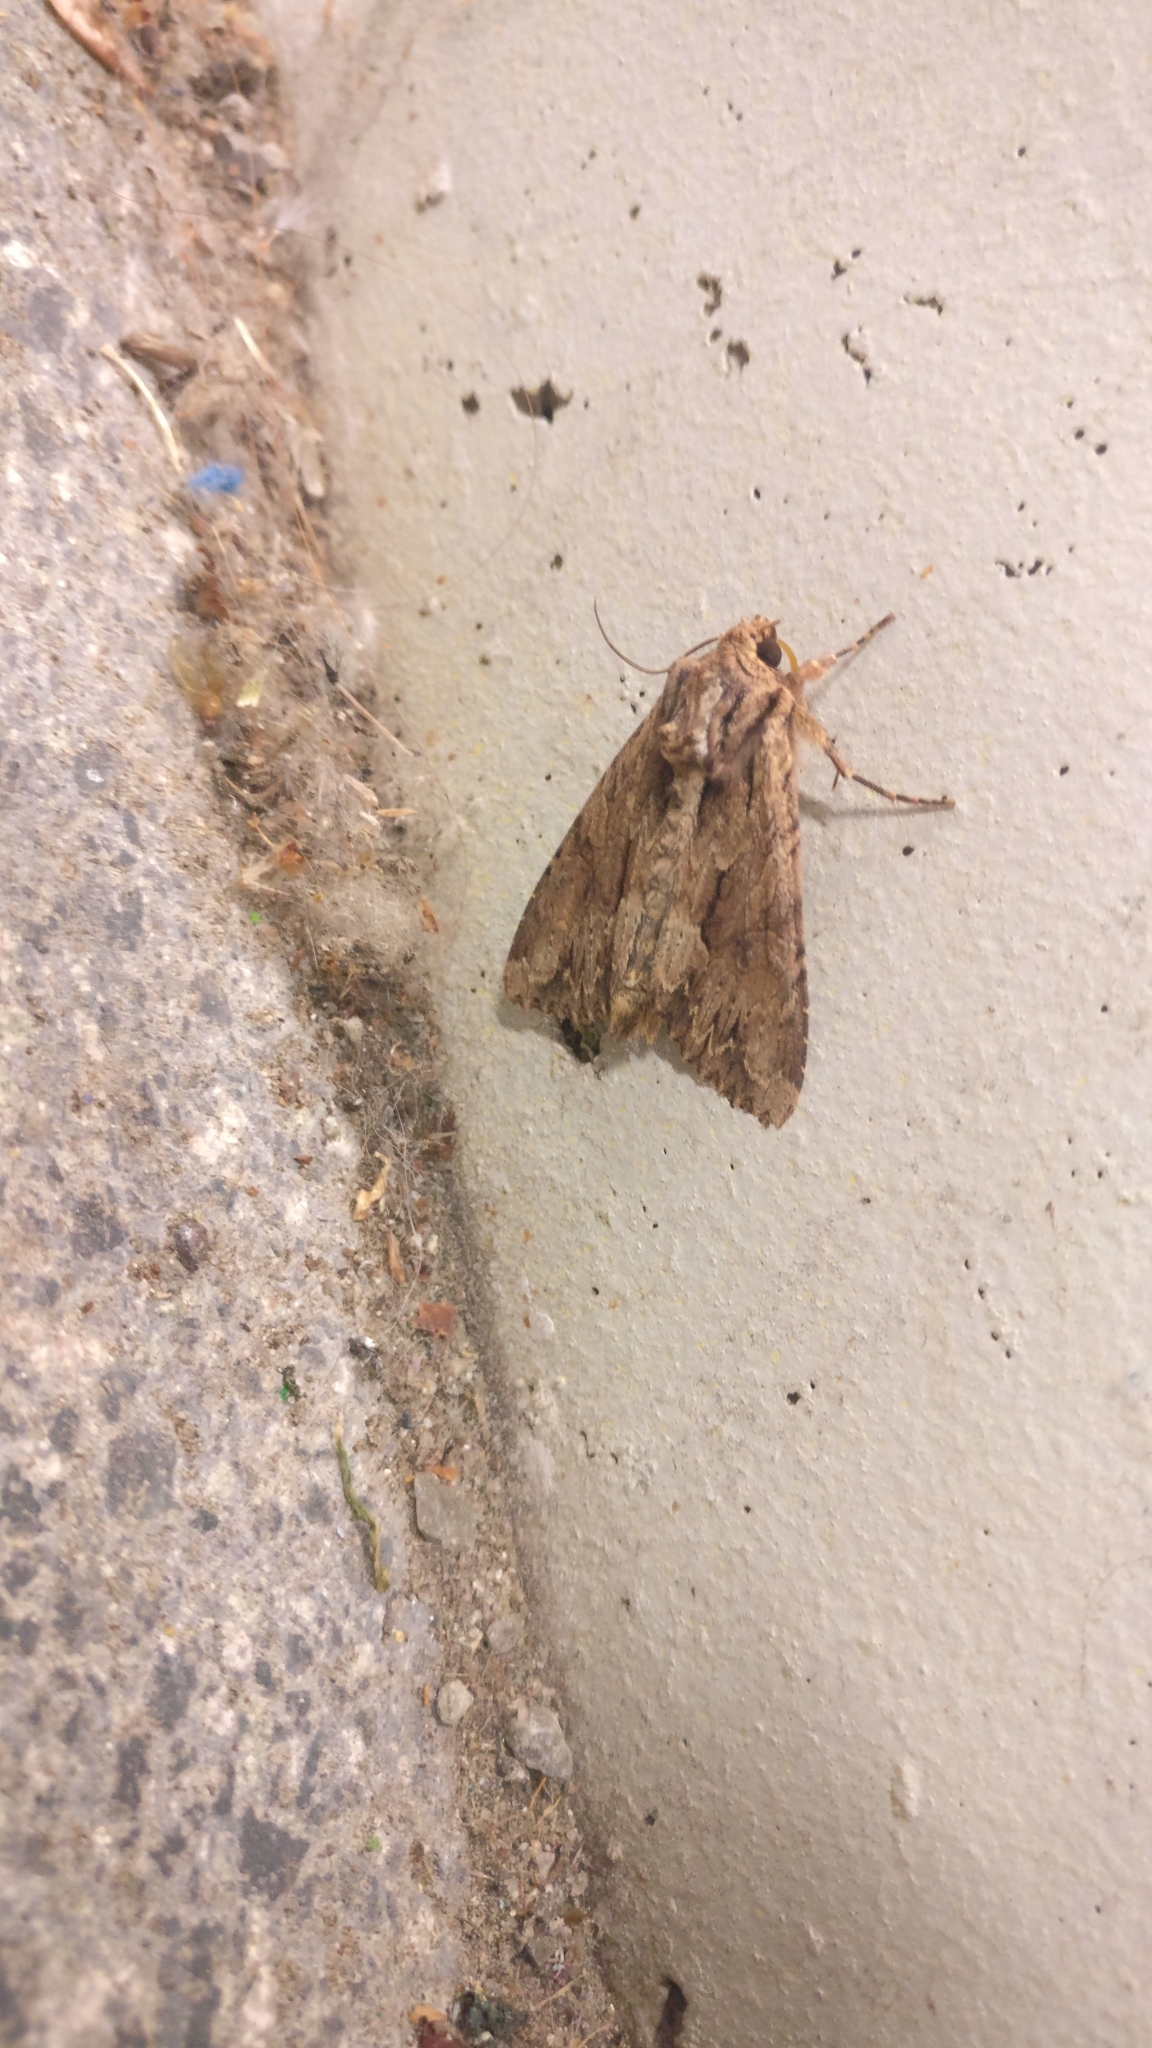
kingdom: Animalia
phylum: Arthropoda
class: Insecta
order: Lepidoptera
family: Noctuidae
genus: Apamea
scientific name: Apamea monoglypha
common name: Dark arches
